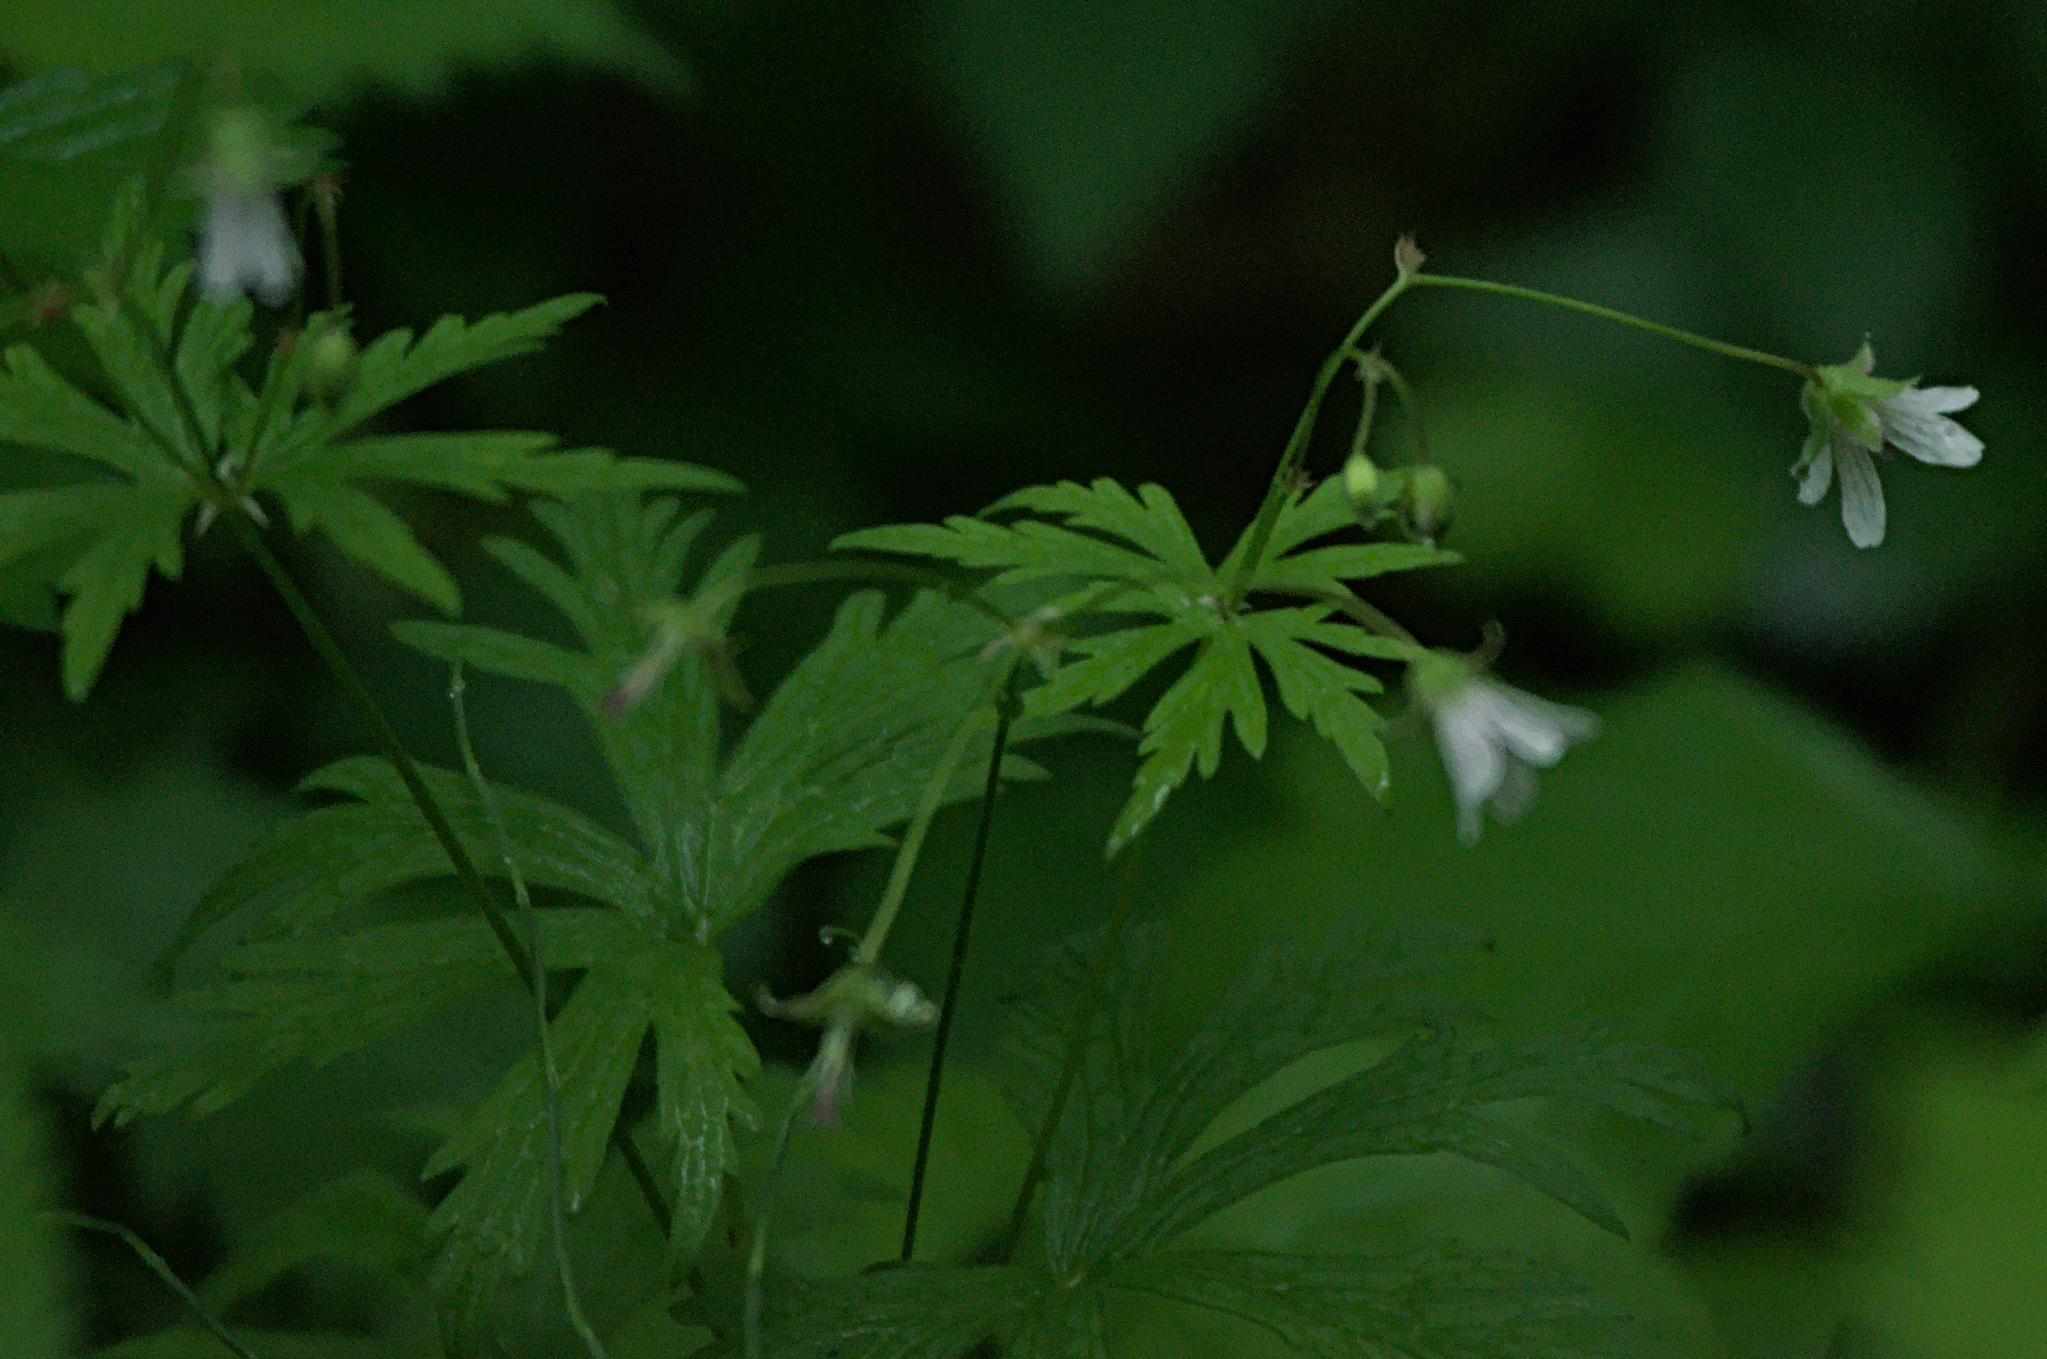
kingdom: Plantae
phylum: Tracheophyta
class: Magnoliopsida
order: Geraniales
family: Geraniaceae
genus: Geranium
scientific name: Geranium pseudosibiricum
